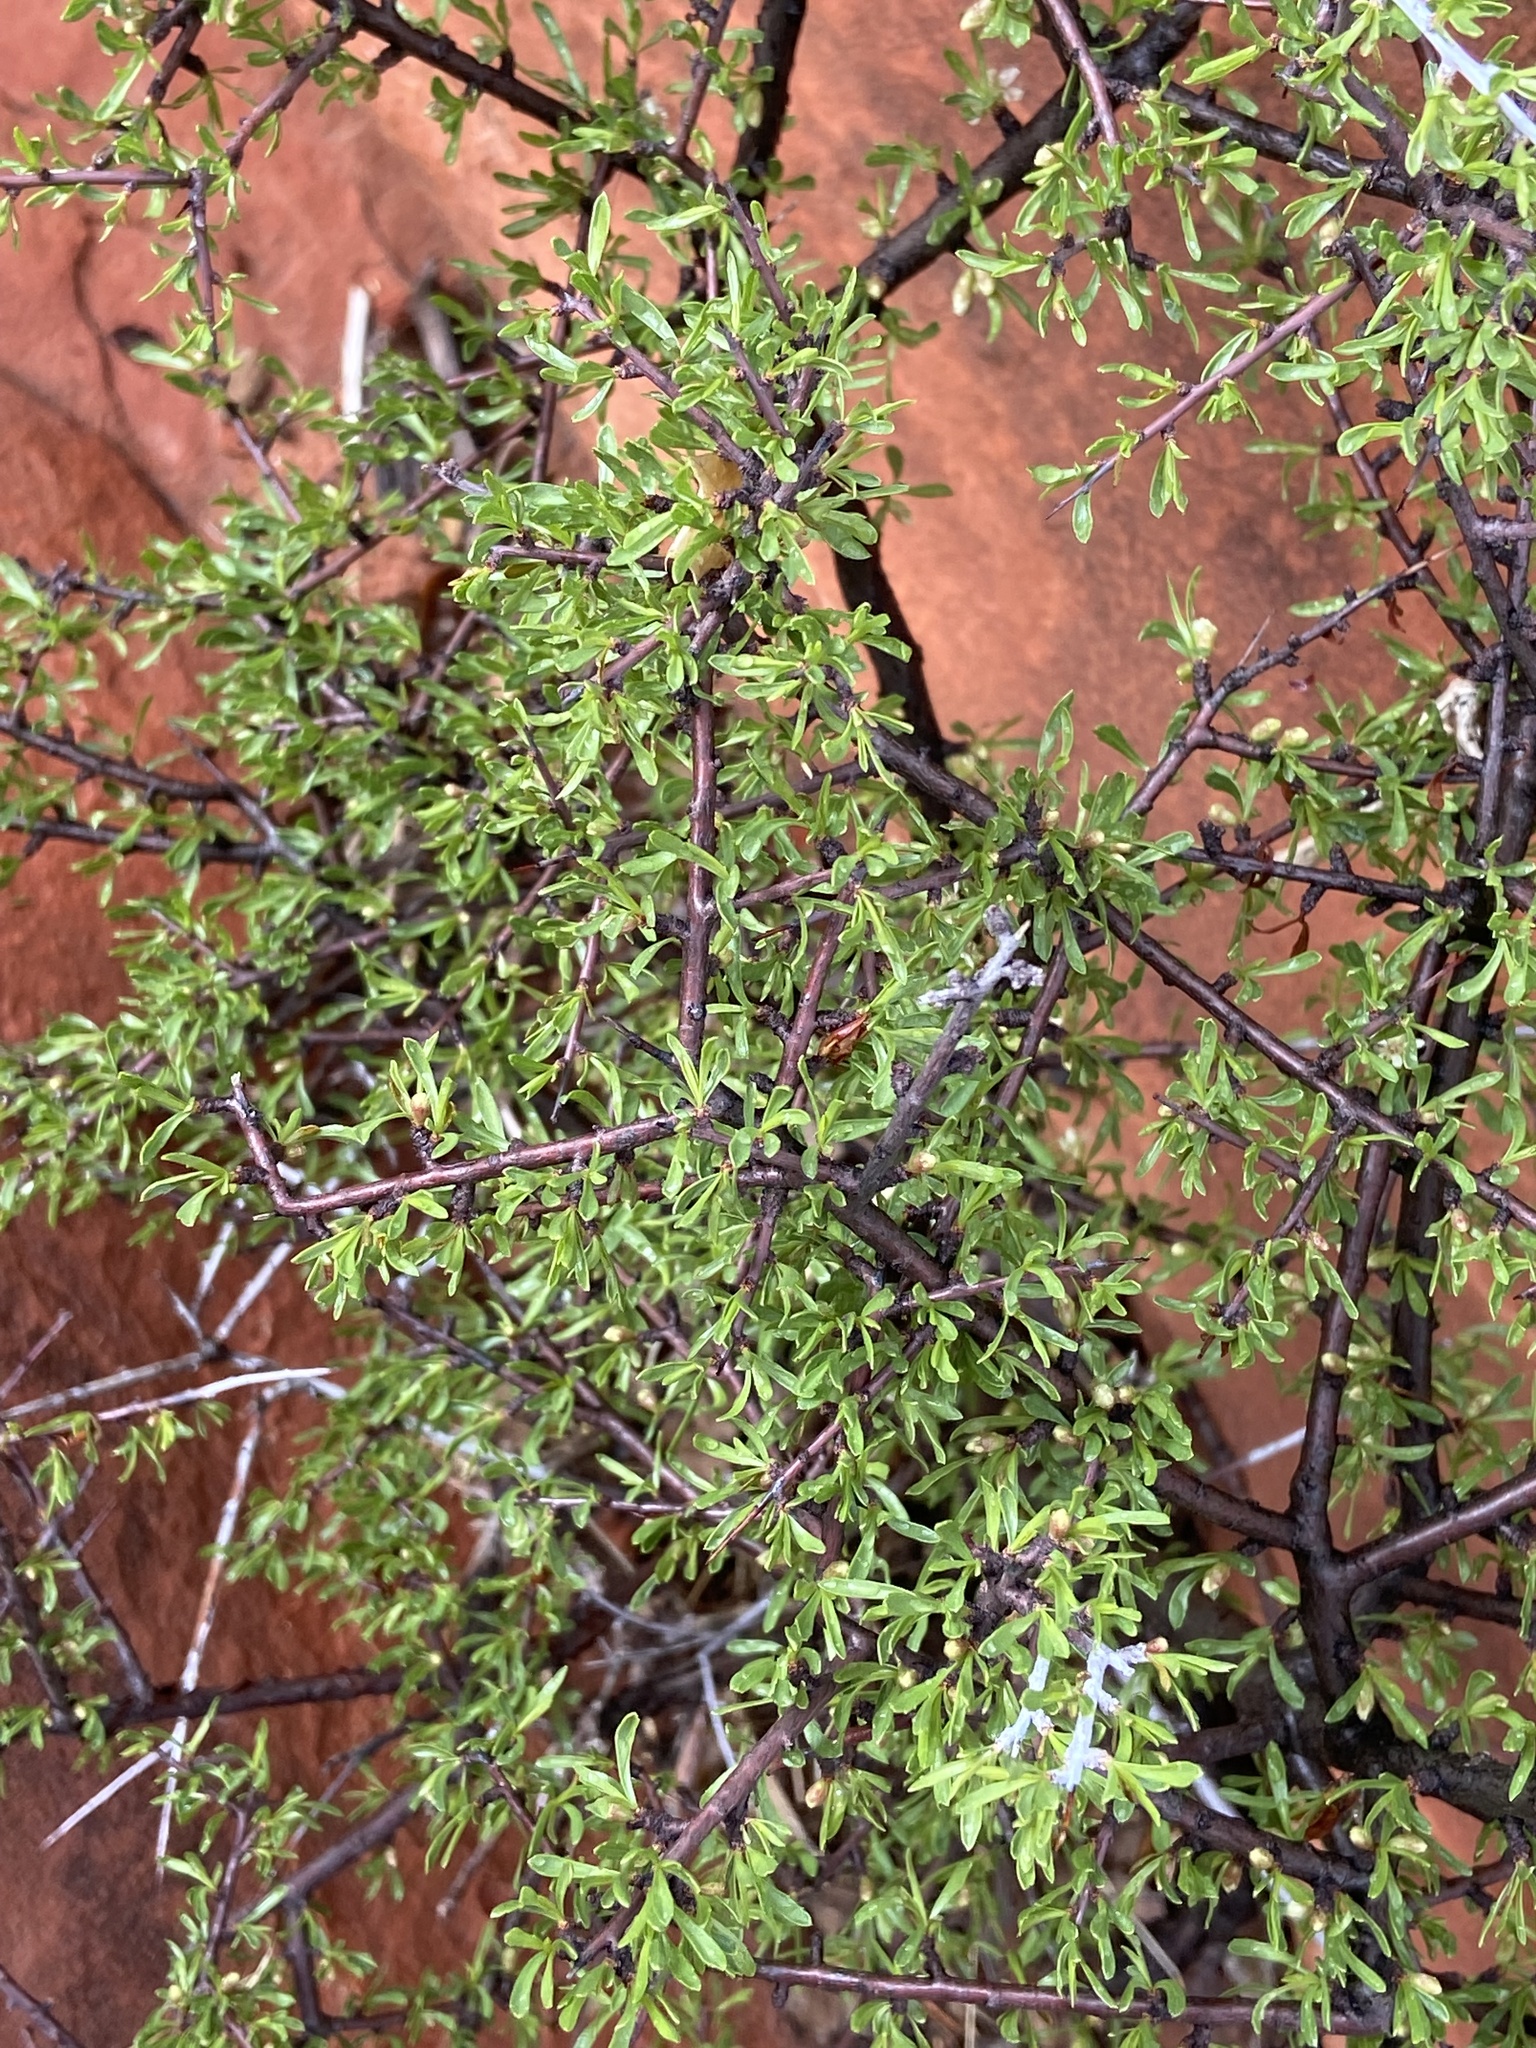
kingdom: Plantae
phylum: Tracheophyta
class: Magnoliopsida
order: Rosales
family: Rosaceae
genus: Prunus
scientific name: Prunus fasciculata
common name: Desert almond
